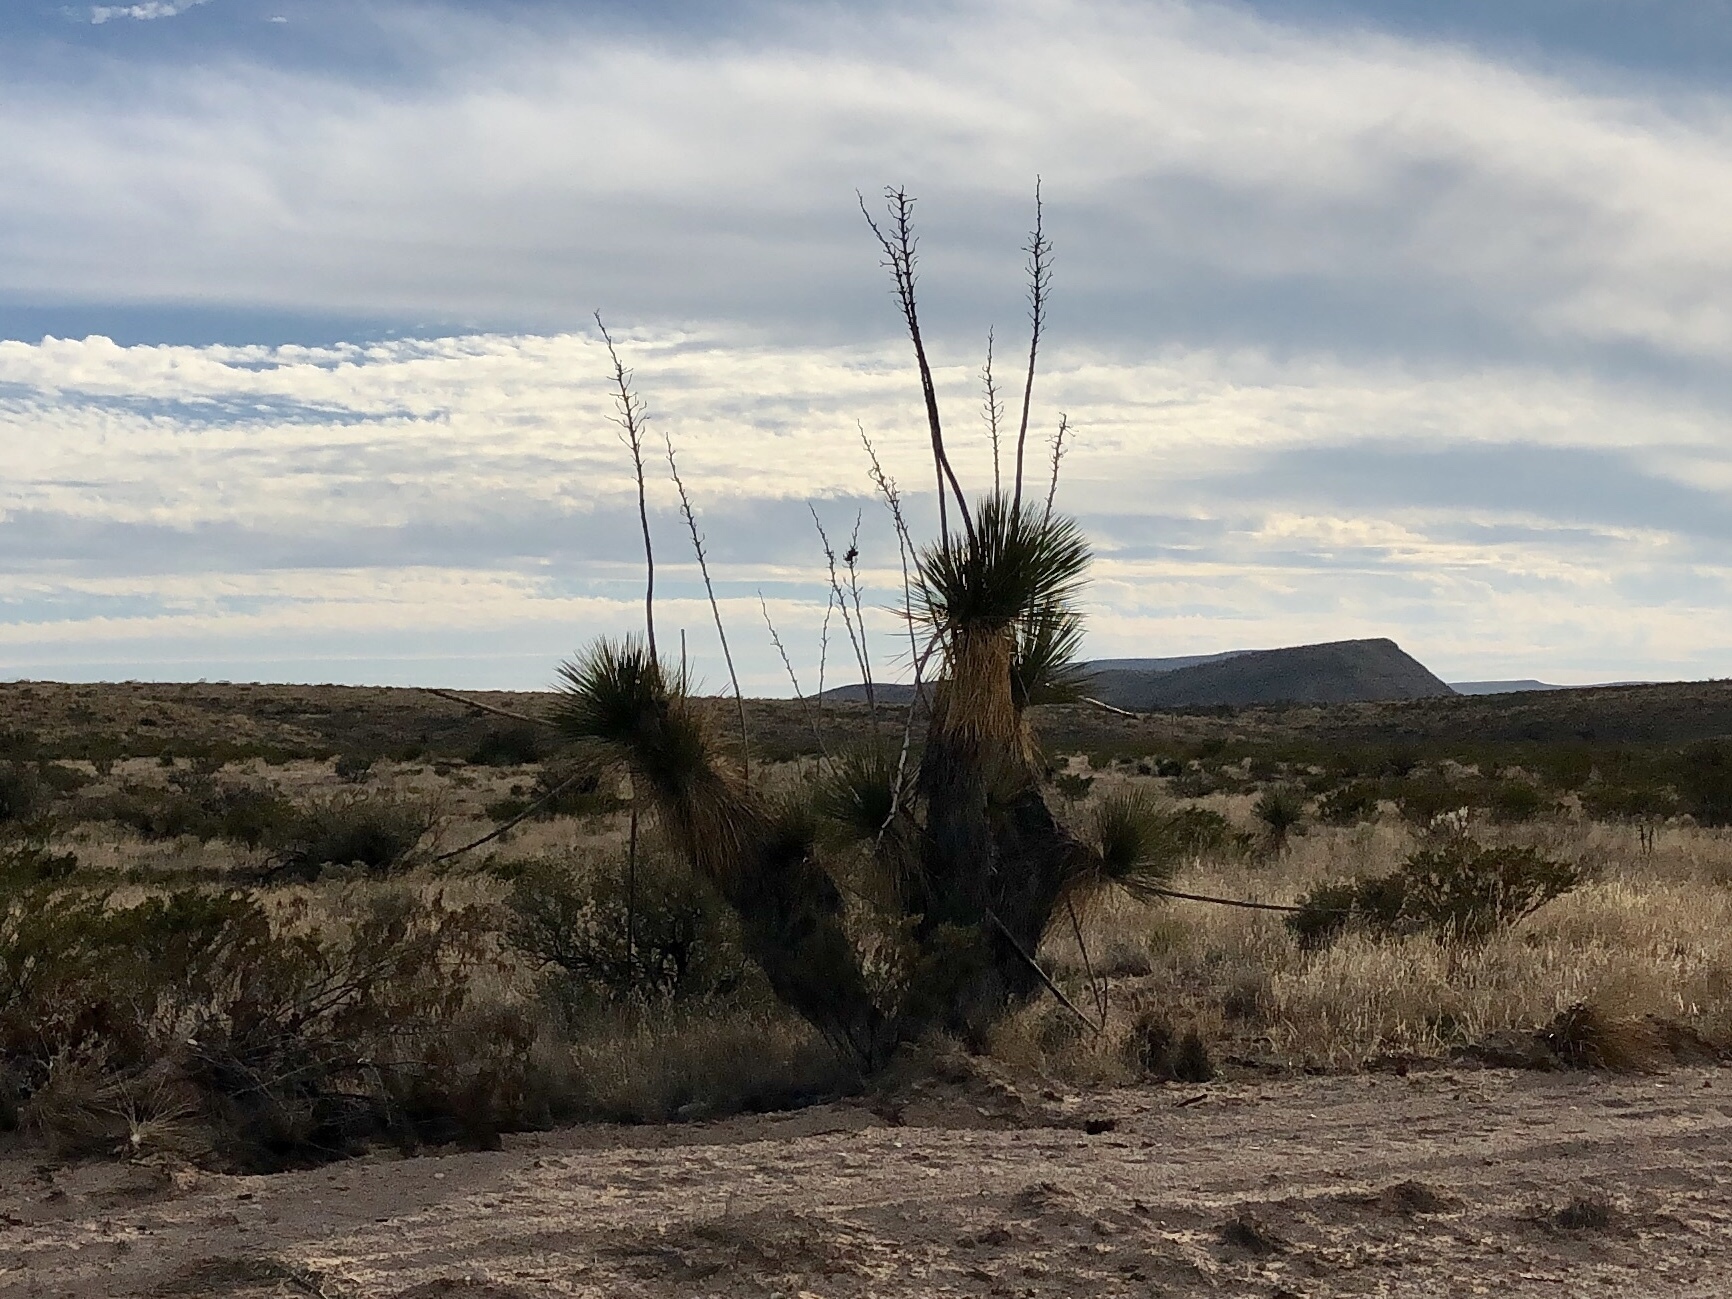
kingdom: Plantae
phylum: Tracheophyta
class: Liliopsida
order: Asparagales
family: Asparagaceae
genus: Yucca
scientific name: Yucca elata
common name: Palmella
